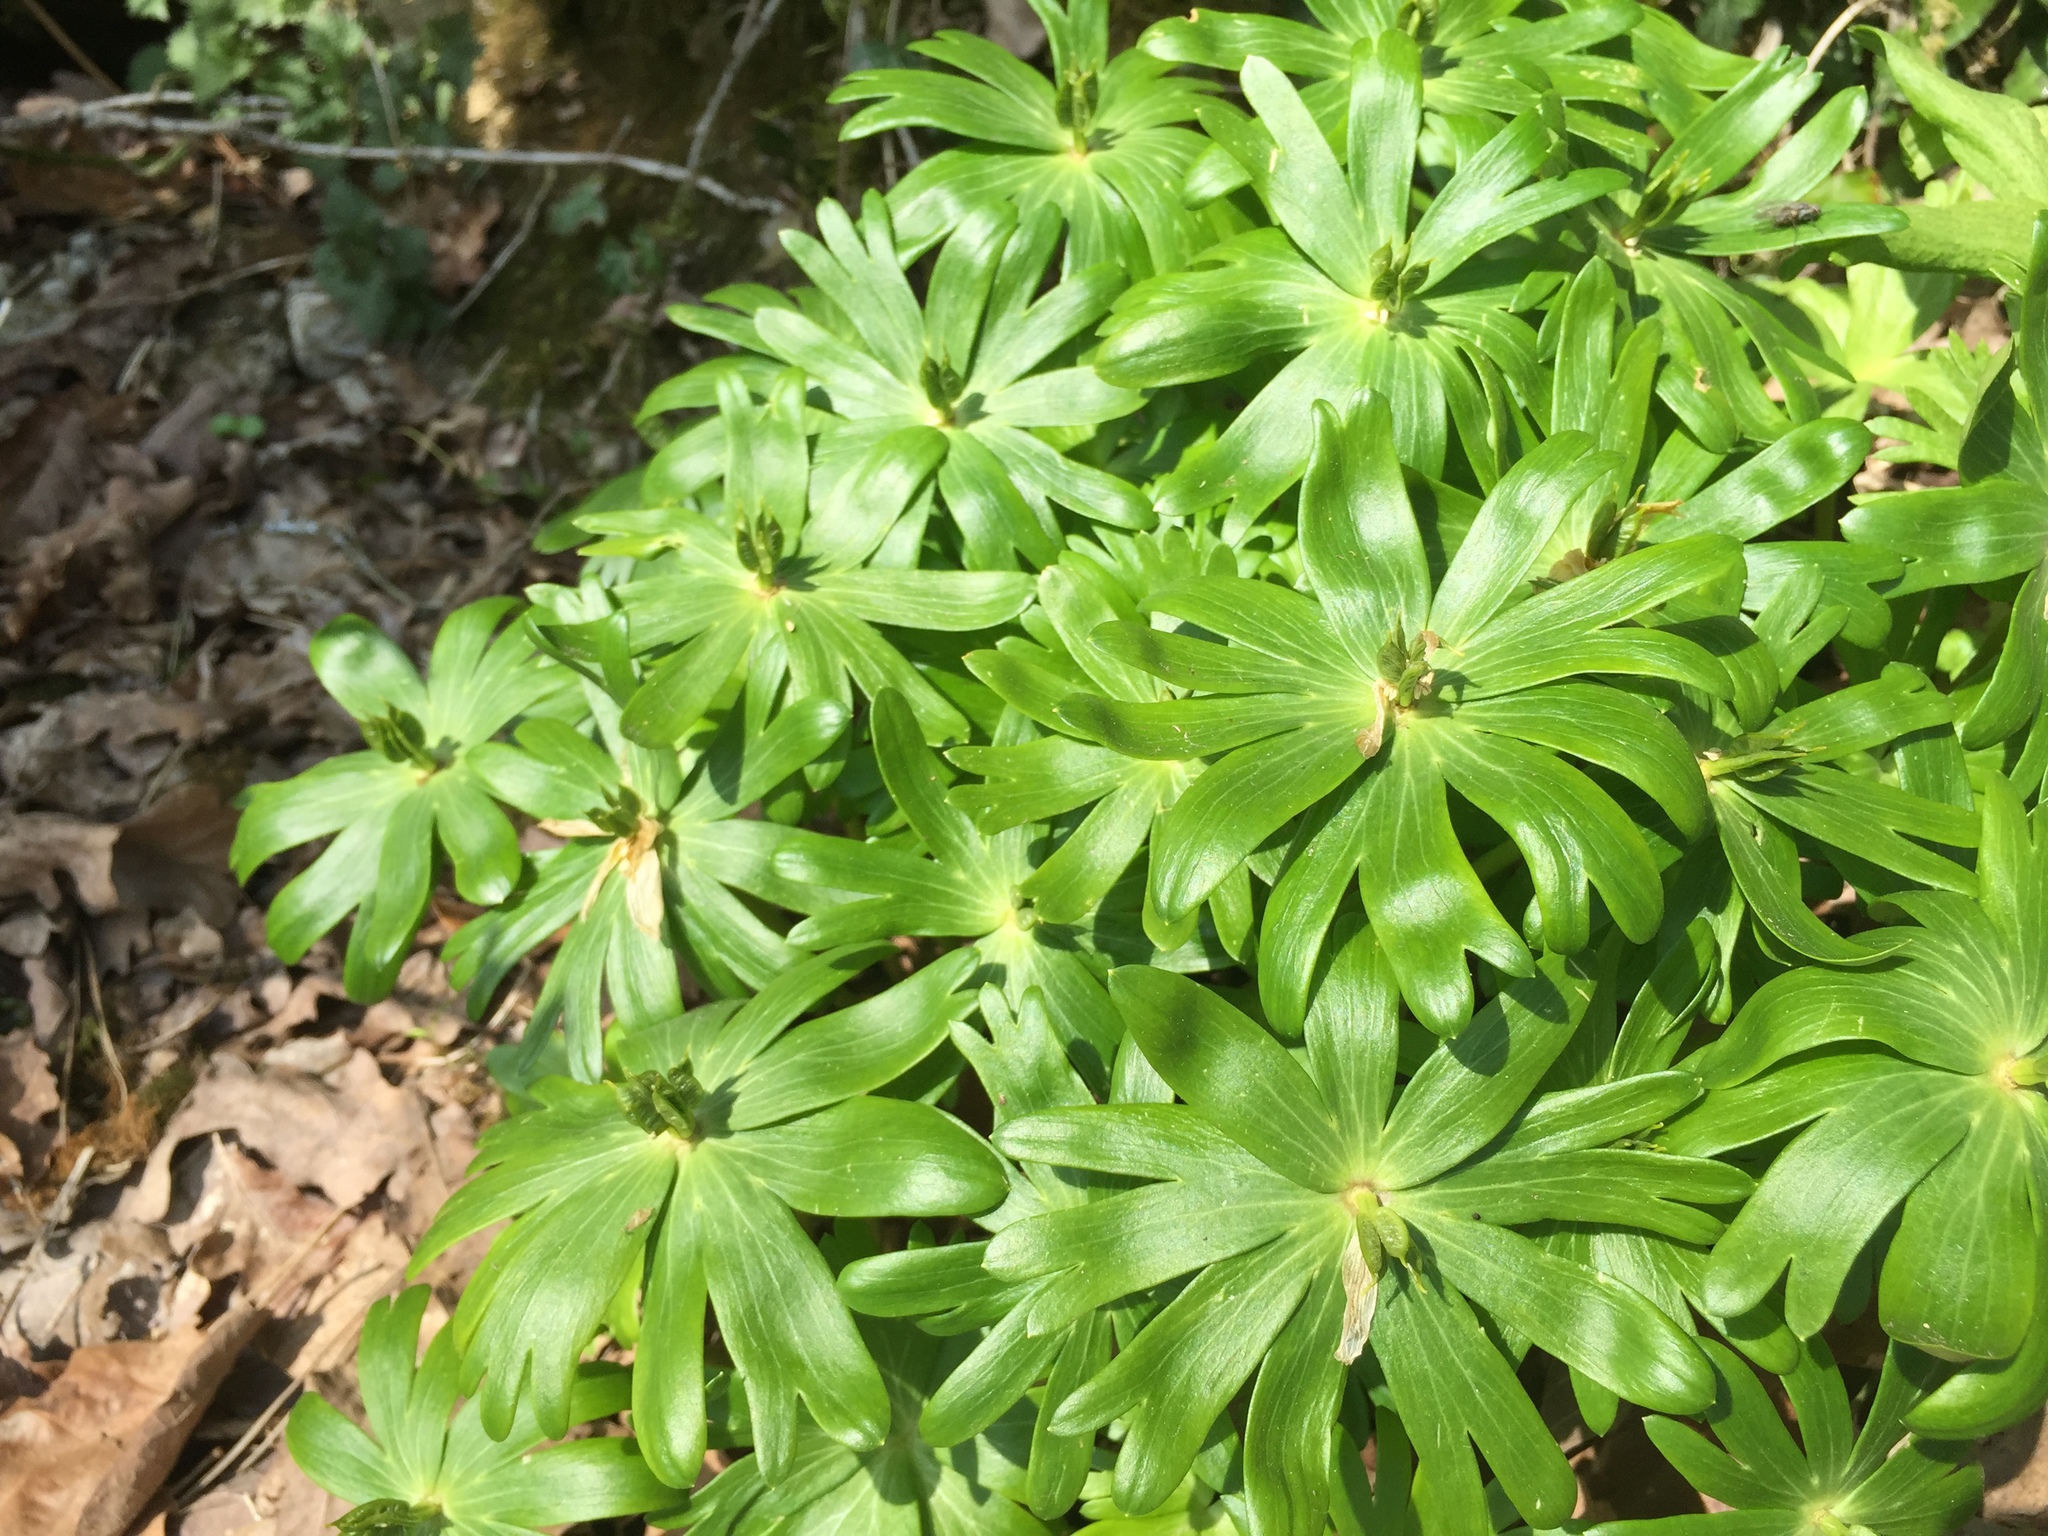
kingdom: Plantae
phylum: Tracheophyta
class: Magnoliopsida
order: Ranunculales
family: Ranunculaceae
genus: Eranthis
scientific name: Eranthis hyemalis
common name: Winter aconite
